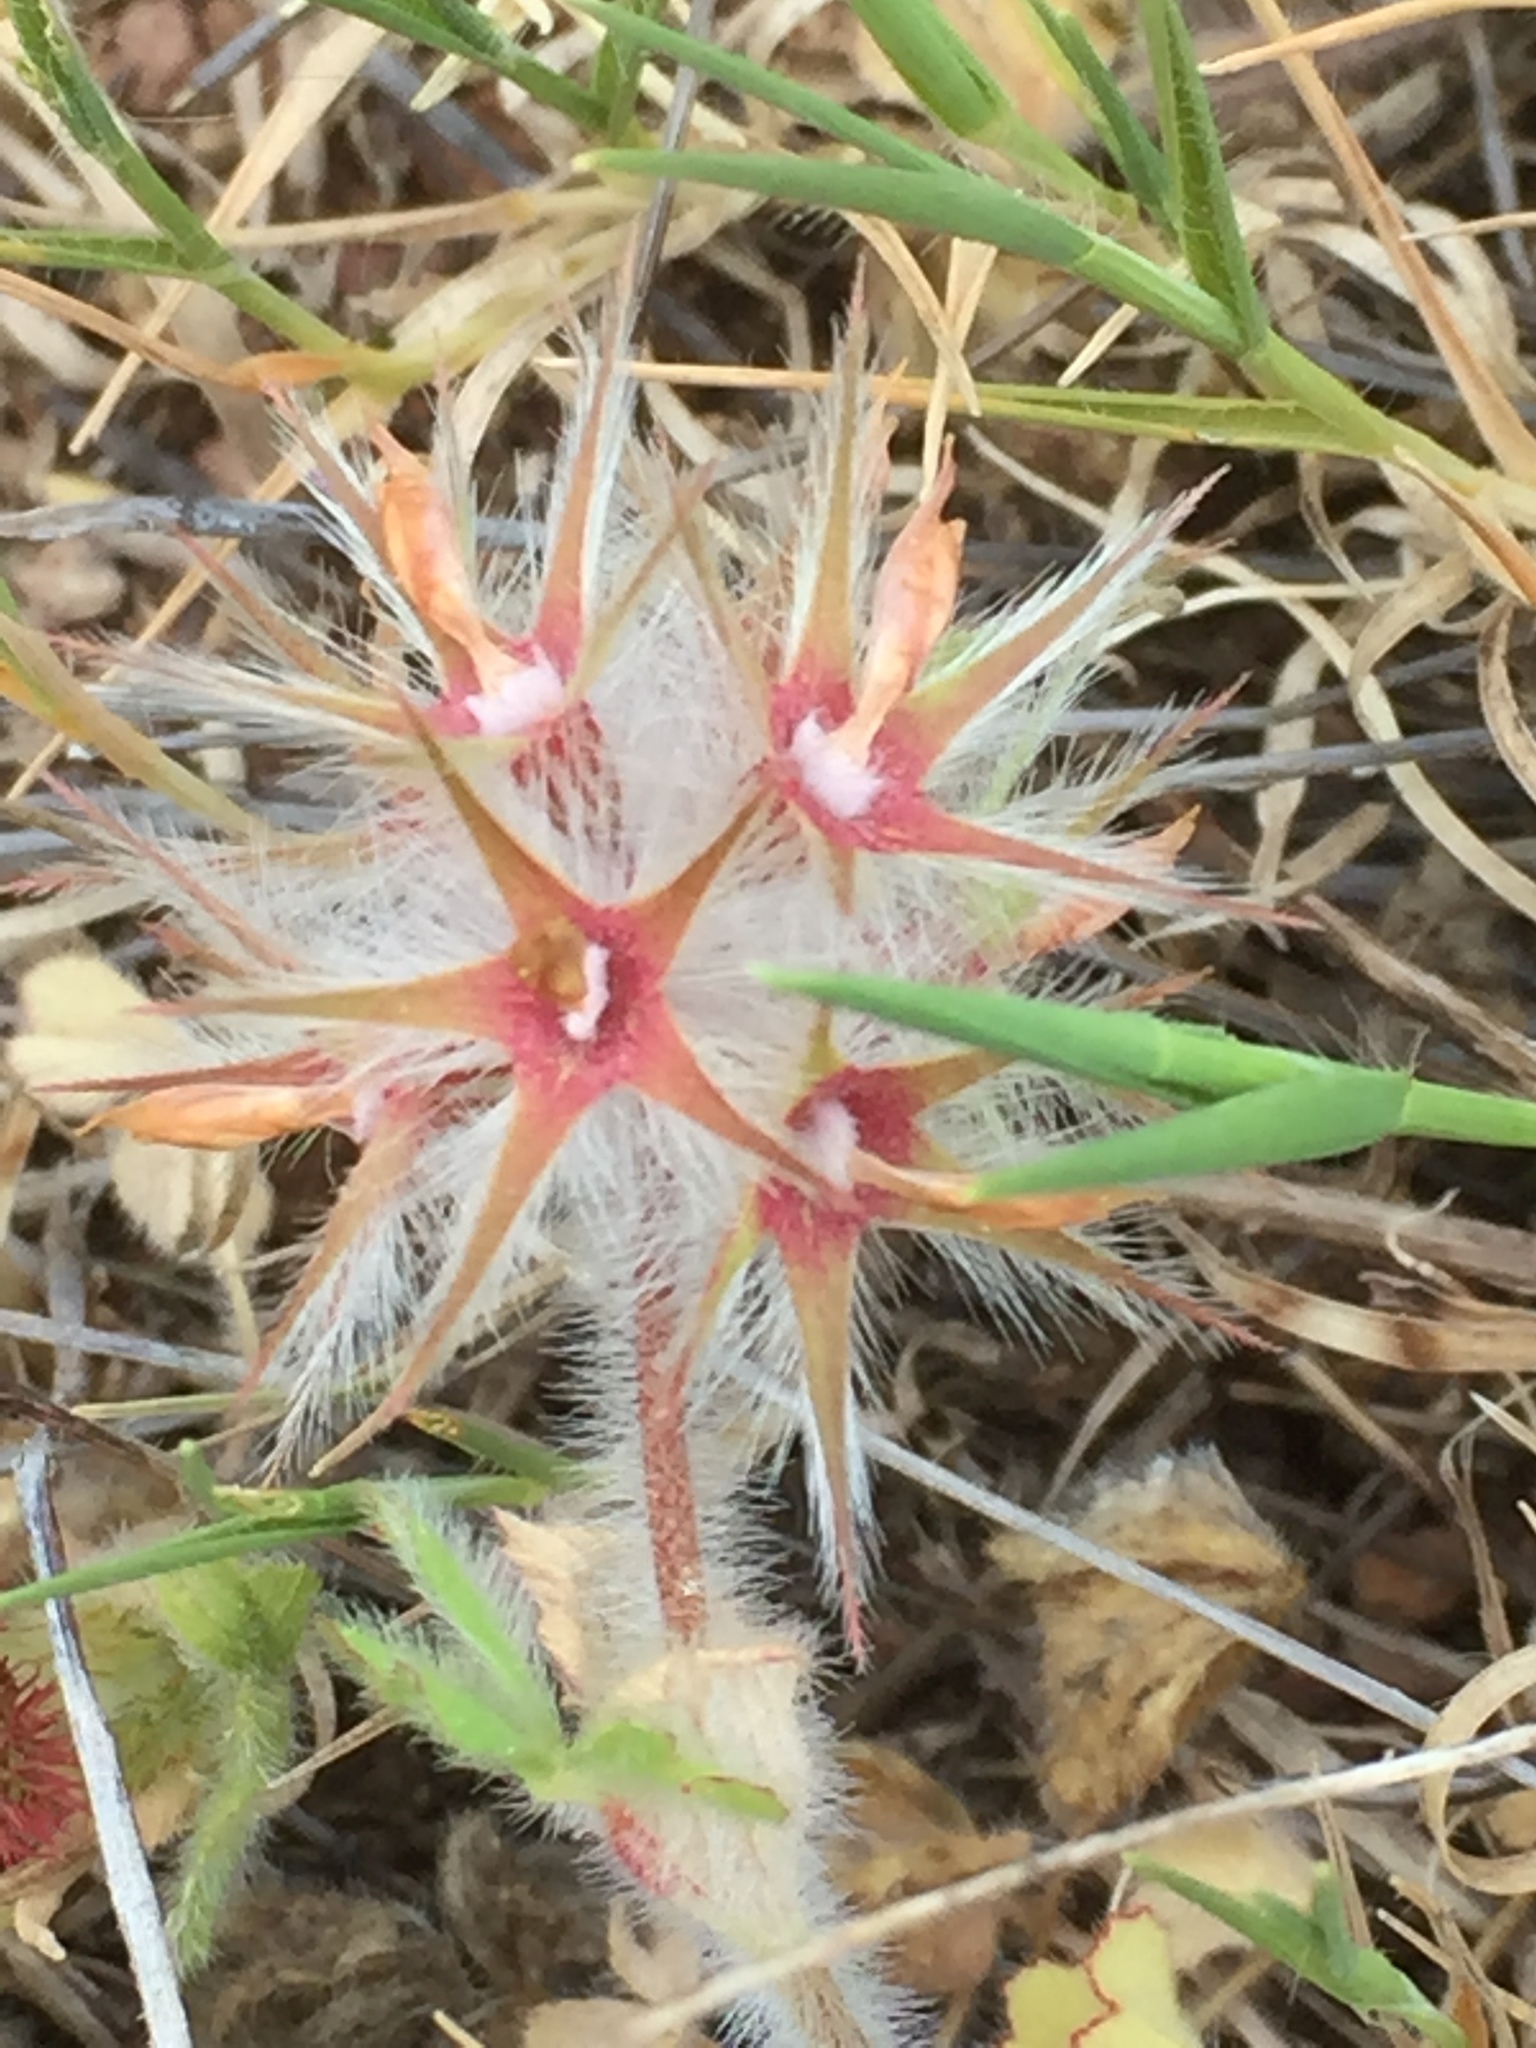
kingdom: Plantae
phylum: Tracheophyta
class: Magnoliopsida
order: Fabales
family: Fabaceae
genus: Trifolium
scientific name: Trifolium stellatum
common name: Starry clover
